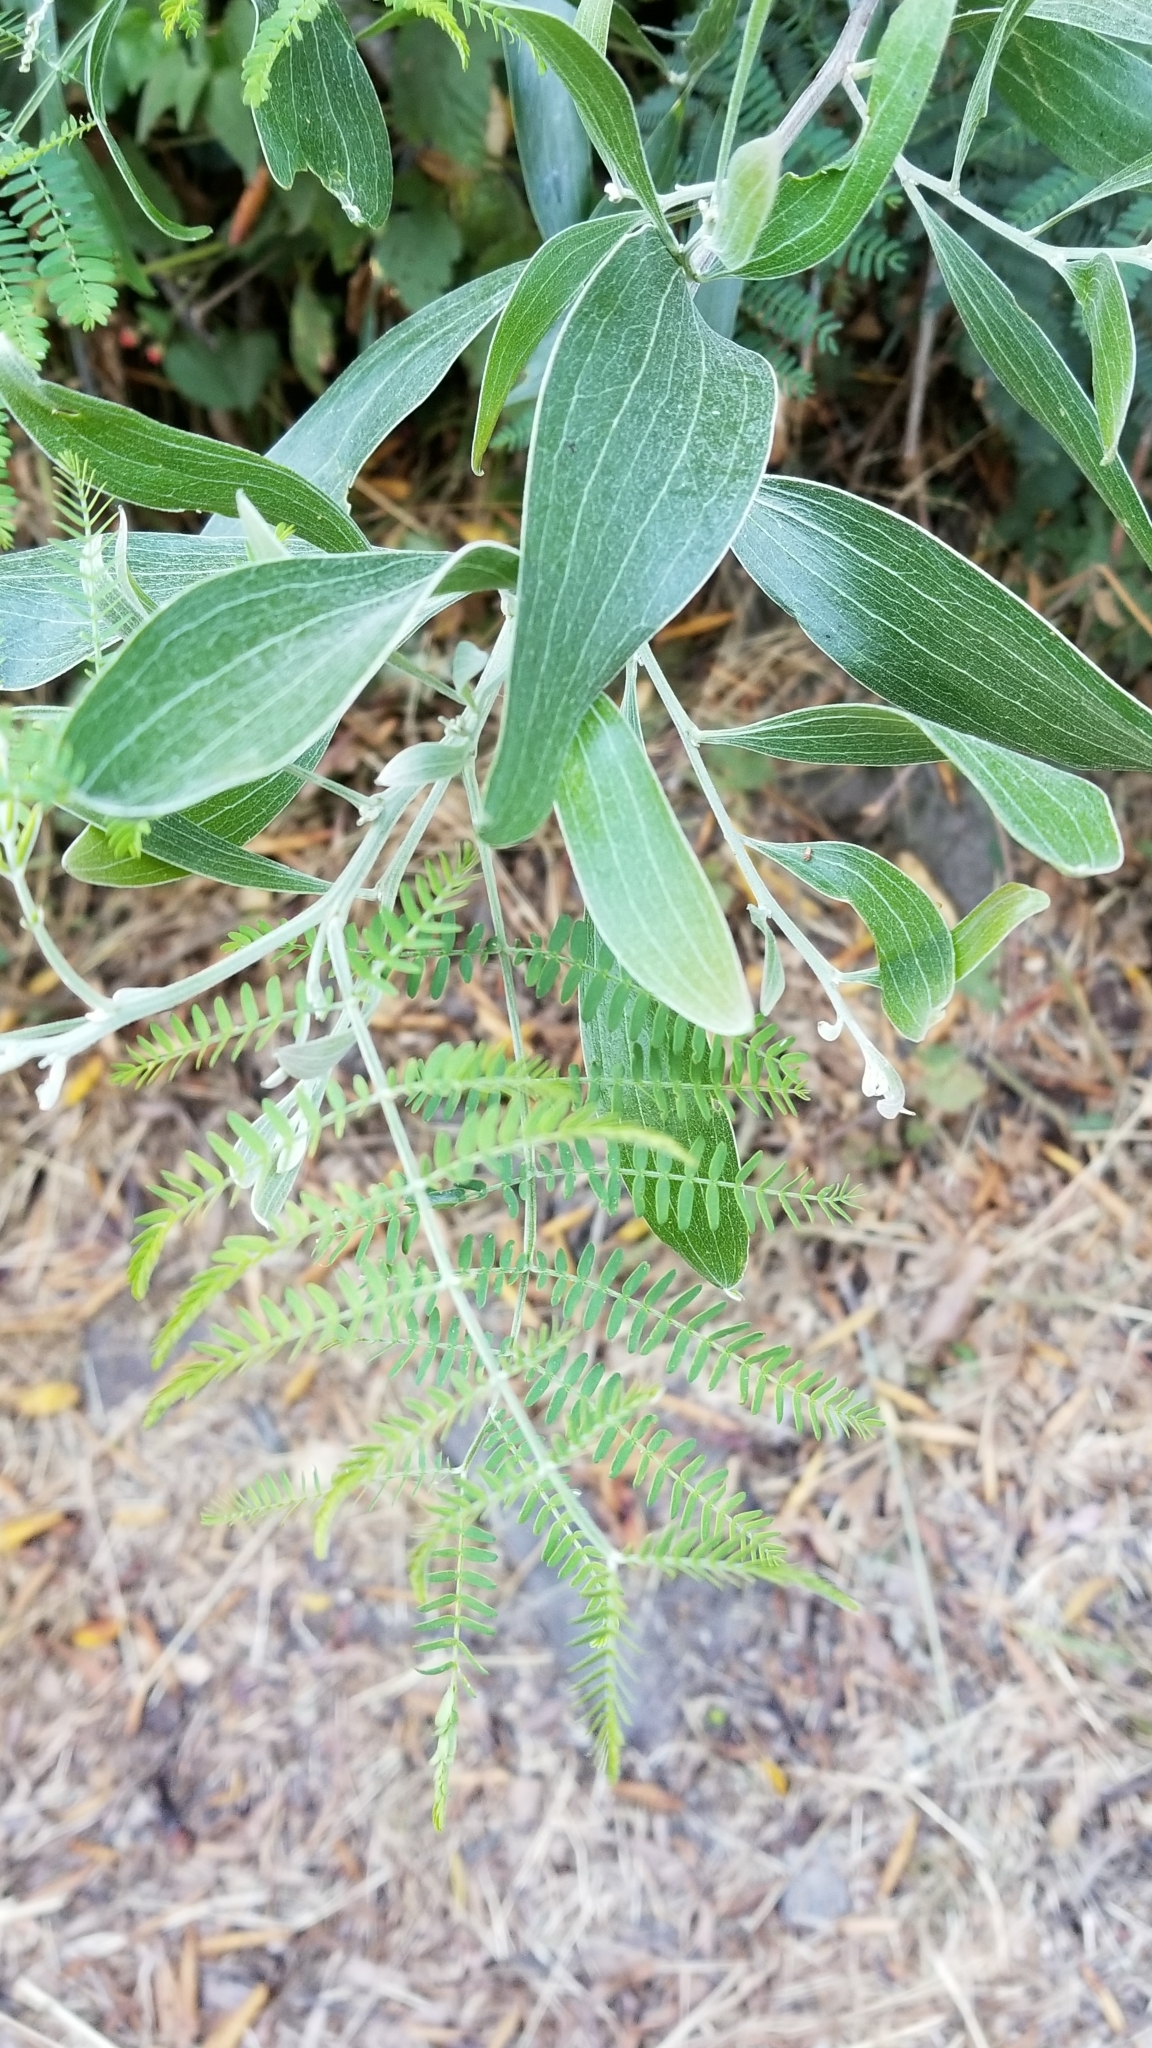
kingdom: Plantae
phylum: Tracheophyta
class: Magnoliopsida
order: Fabales
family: Fabaceae
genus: Acacia
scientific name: Acacia melanoxylon
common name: Blackwood
